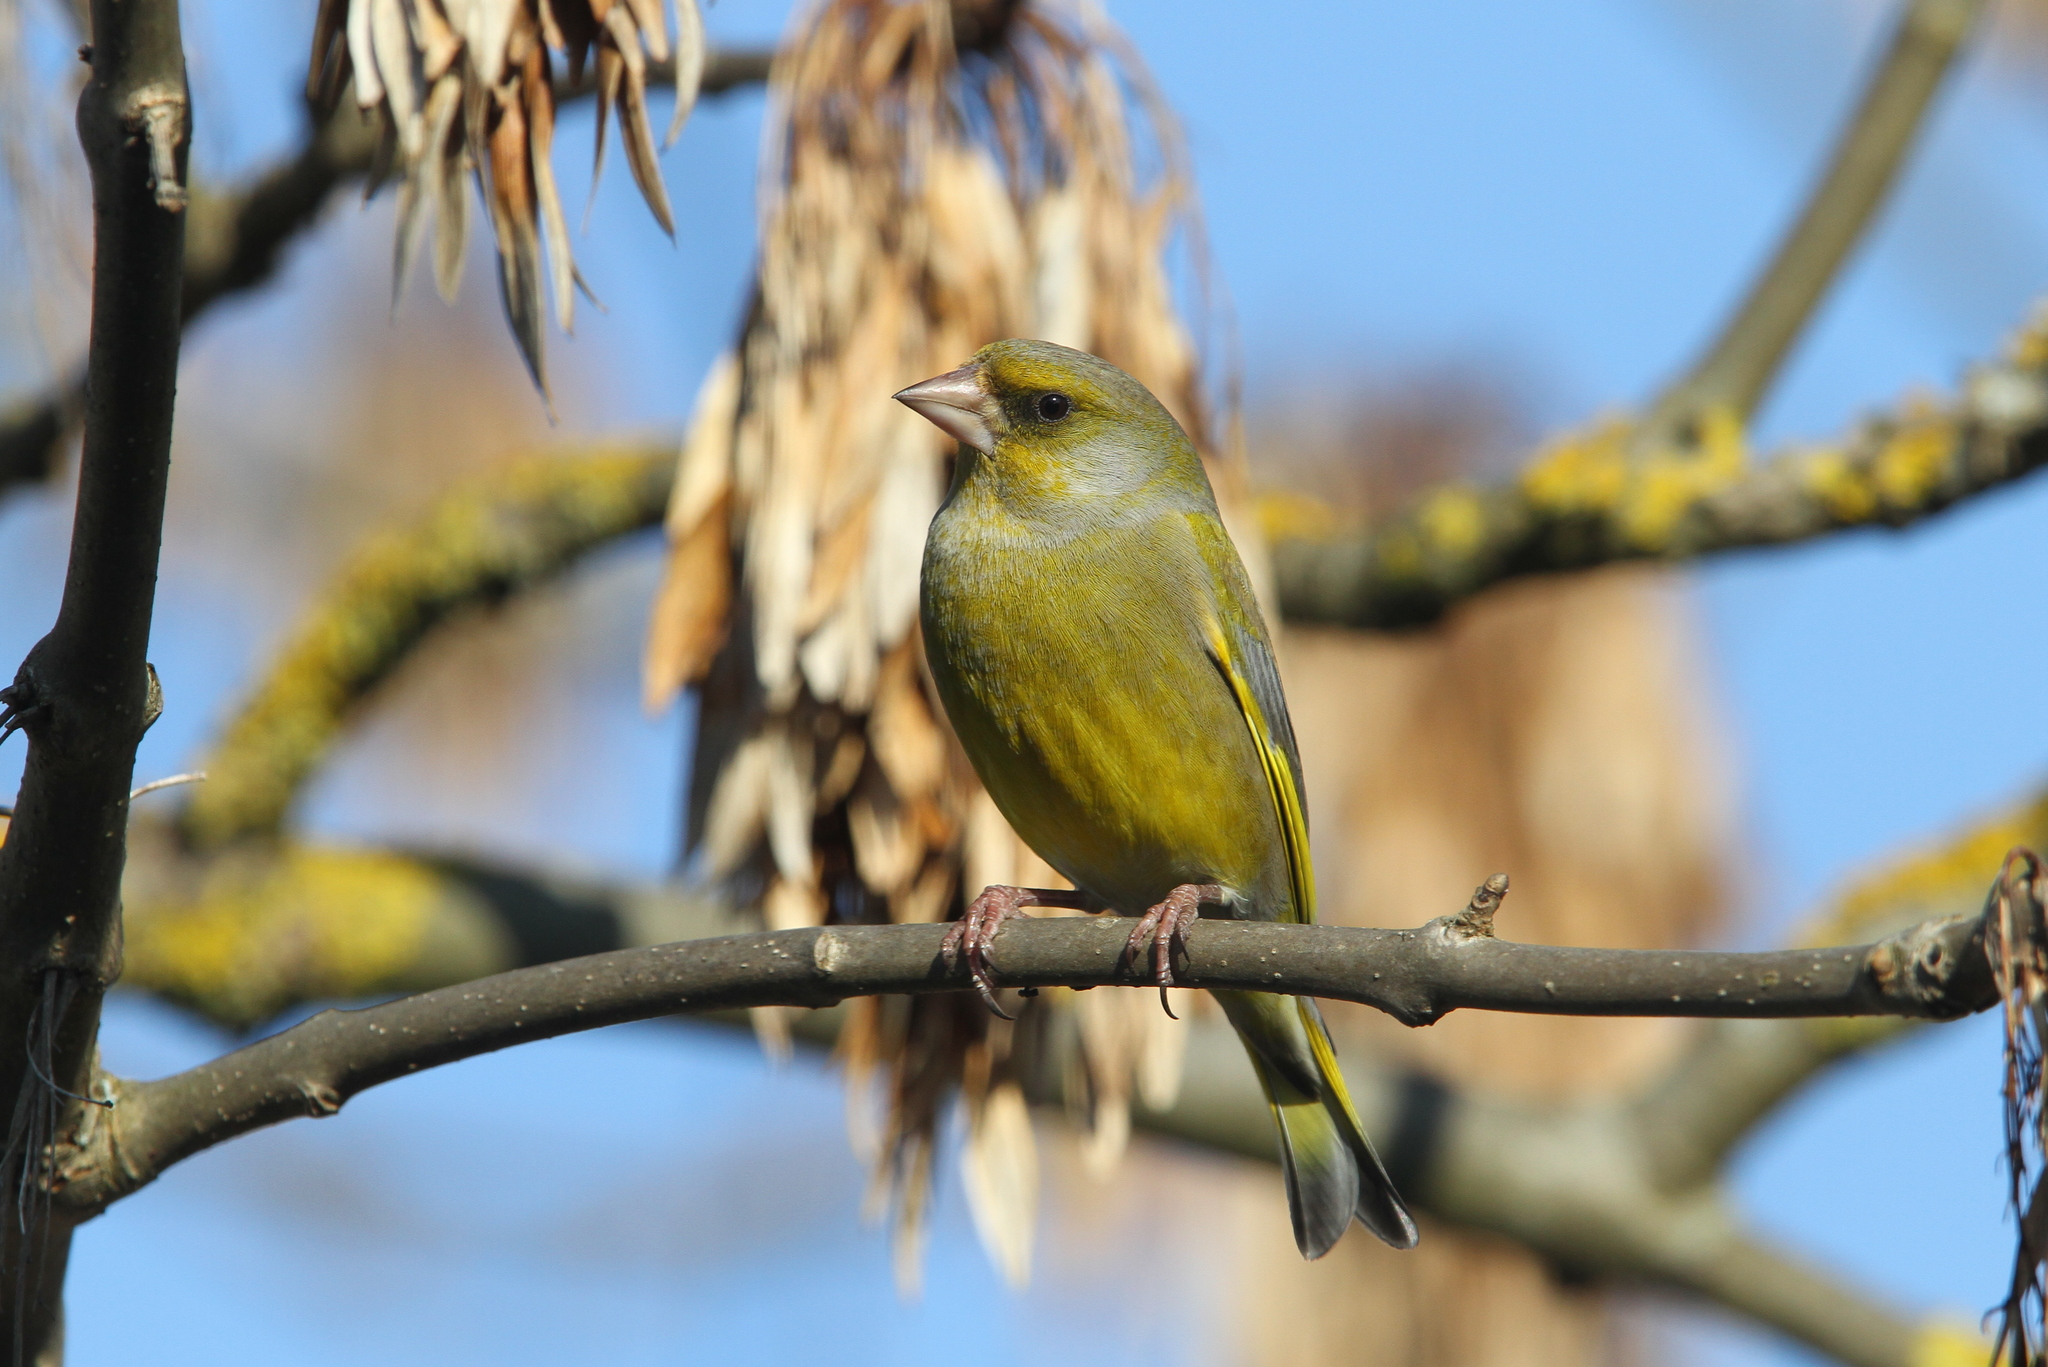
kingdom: Plantae
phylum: Tracheophyta
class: Liliopsida
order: Poales
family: Poaceae
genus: Chloris
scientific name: Chloris chloris
